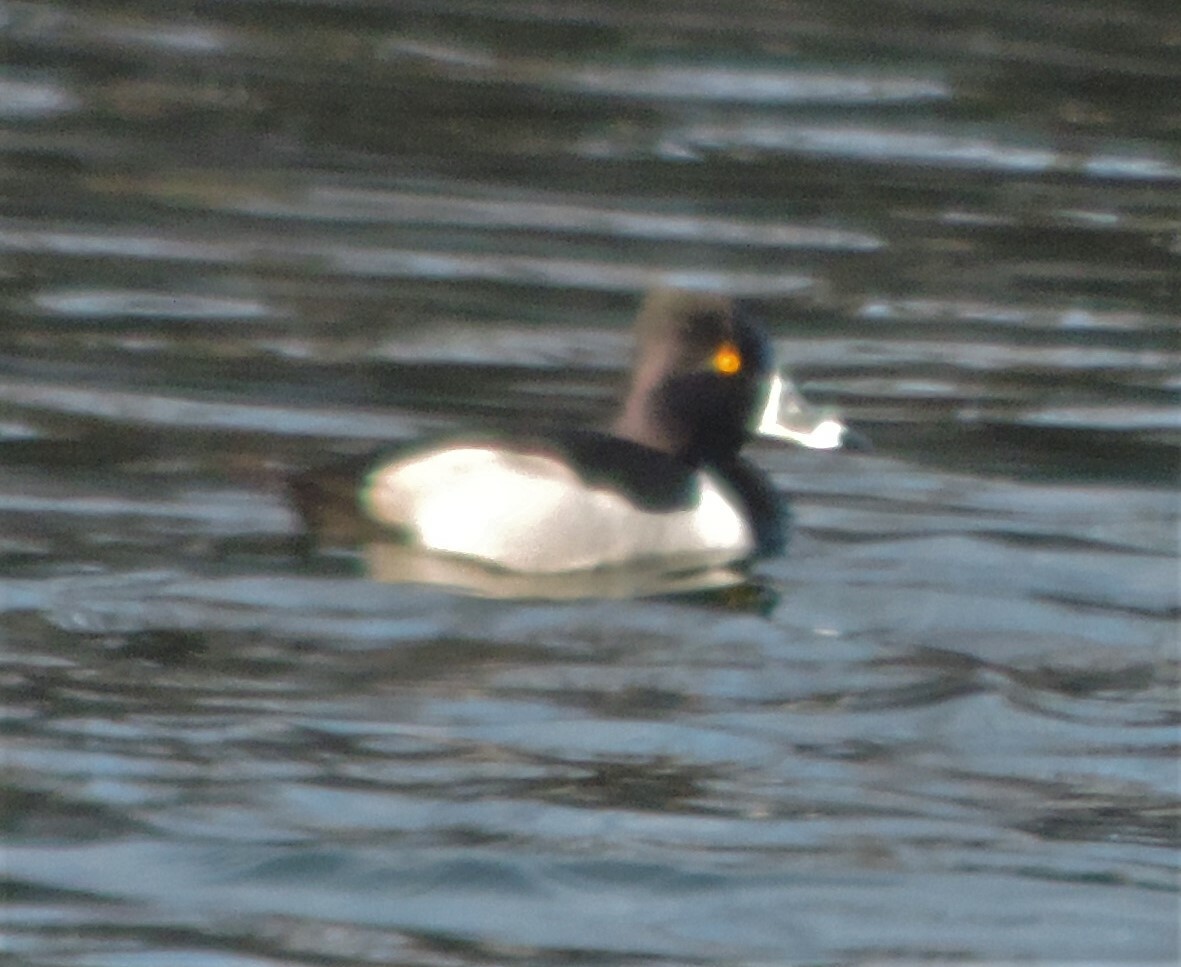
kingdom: Animalia
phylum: Chordata
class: Aves
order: Anseriformes
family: Anatidae
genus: Aythya
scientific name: Aythya collaris
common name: Ring-necked duck
